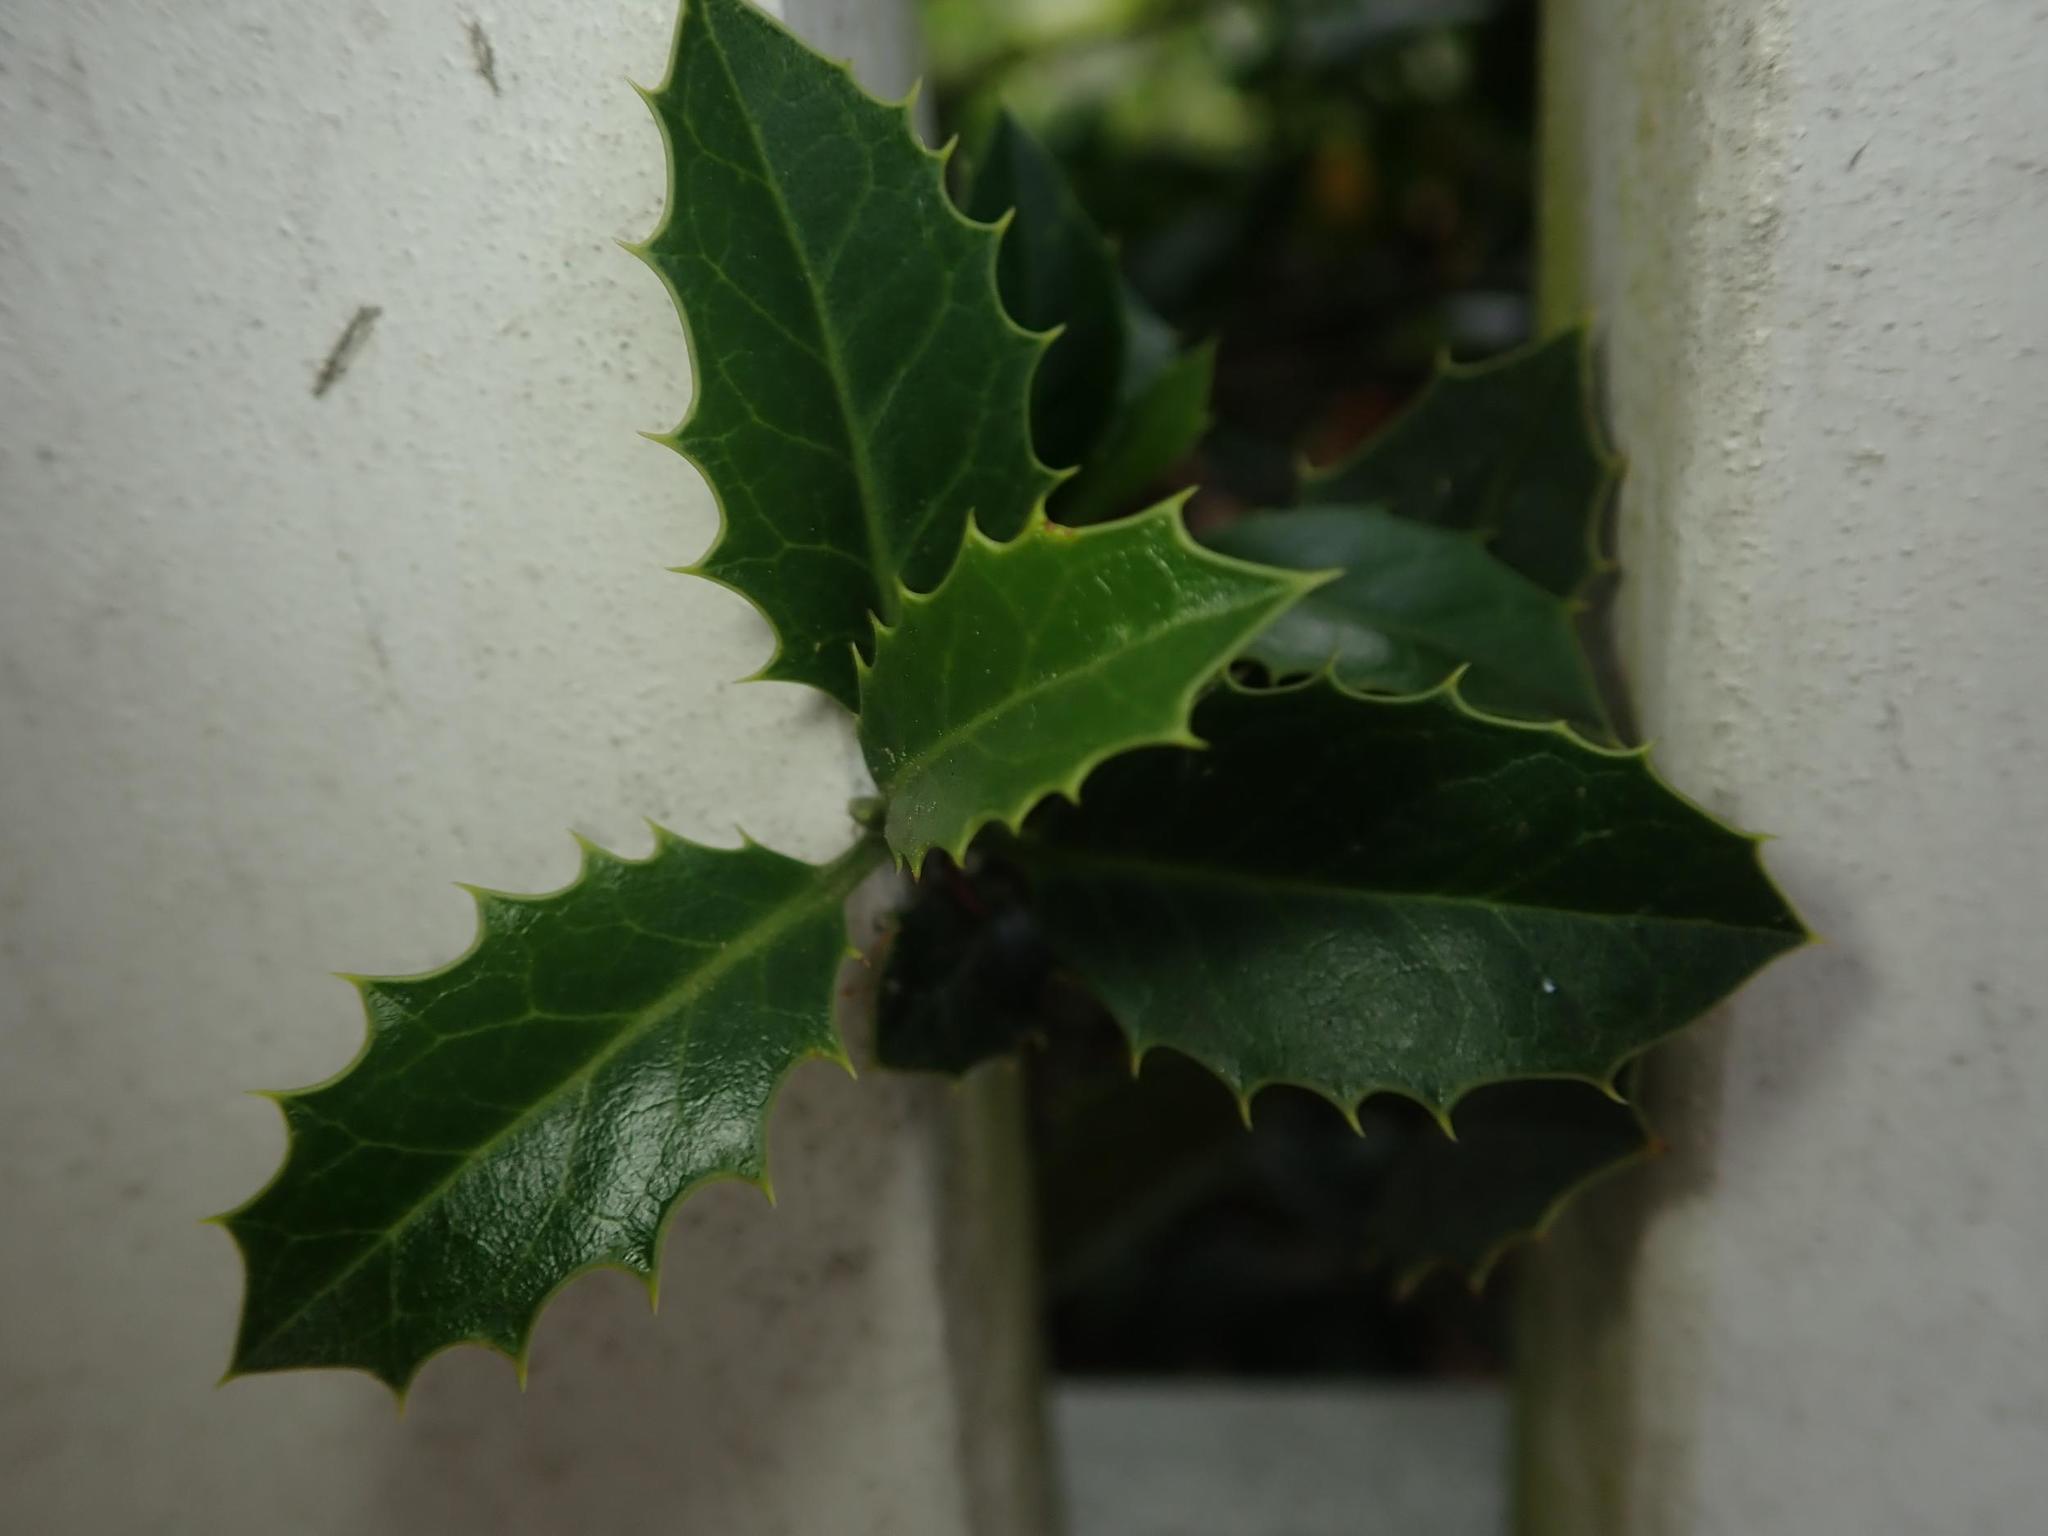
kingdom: Plantae
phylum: Tracheophyta
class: Magnoliopsida
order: Aquifoliales
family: Aquifoliaceae
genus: Ilex
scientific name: Ilex aquifolium
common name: English holly
